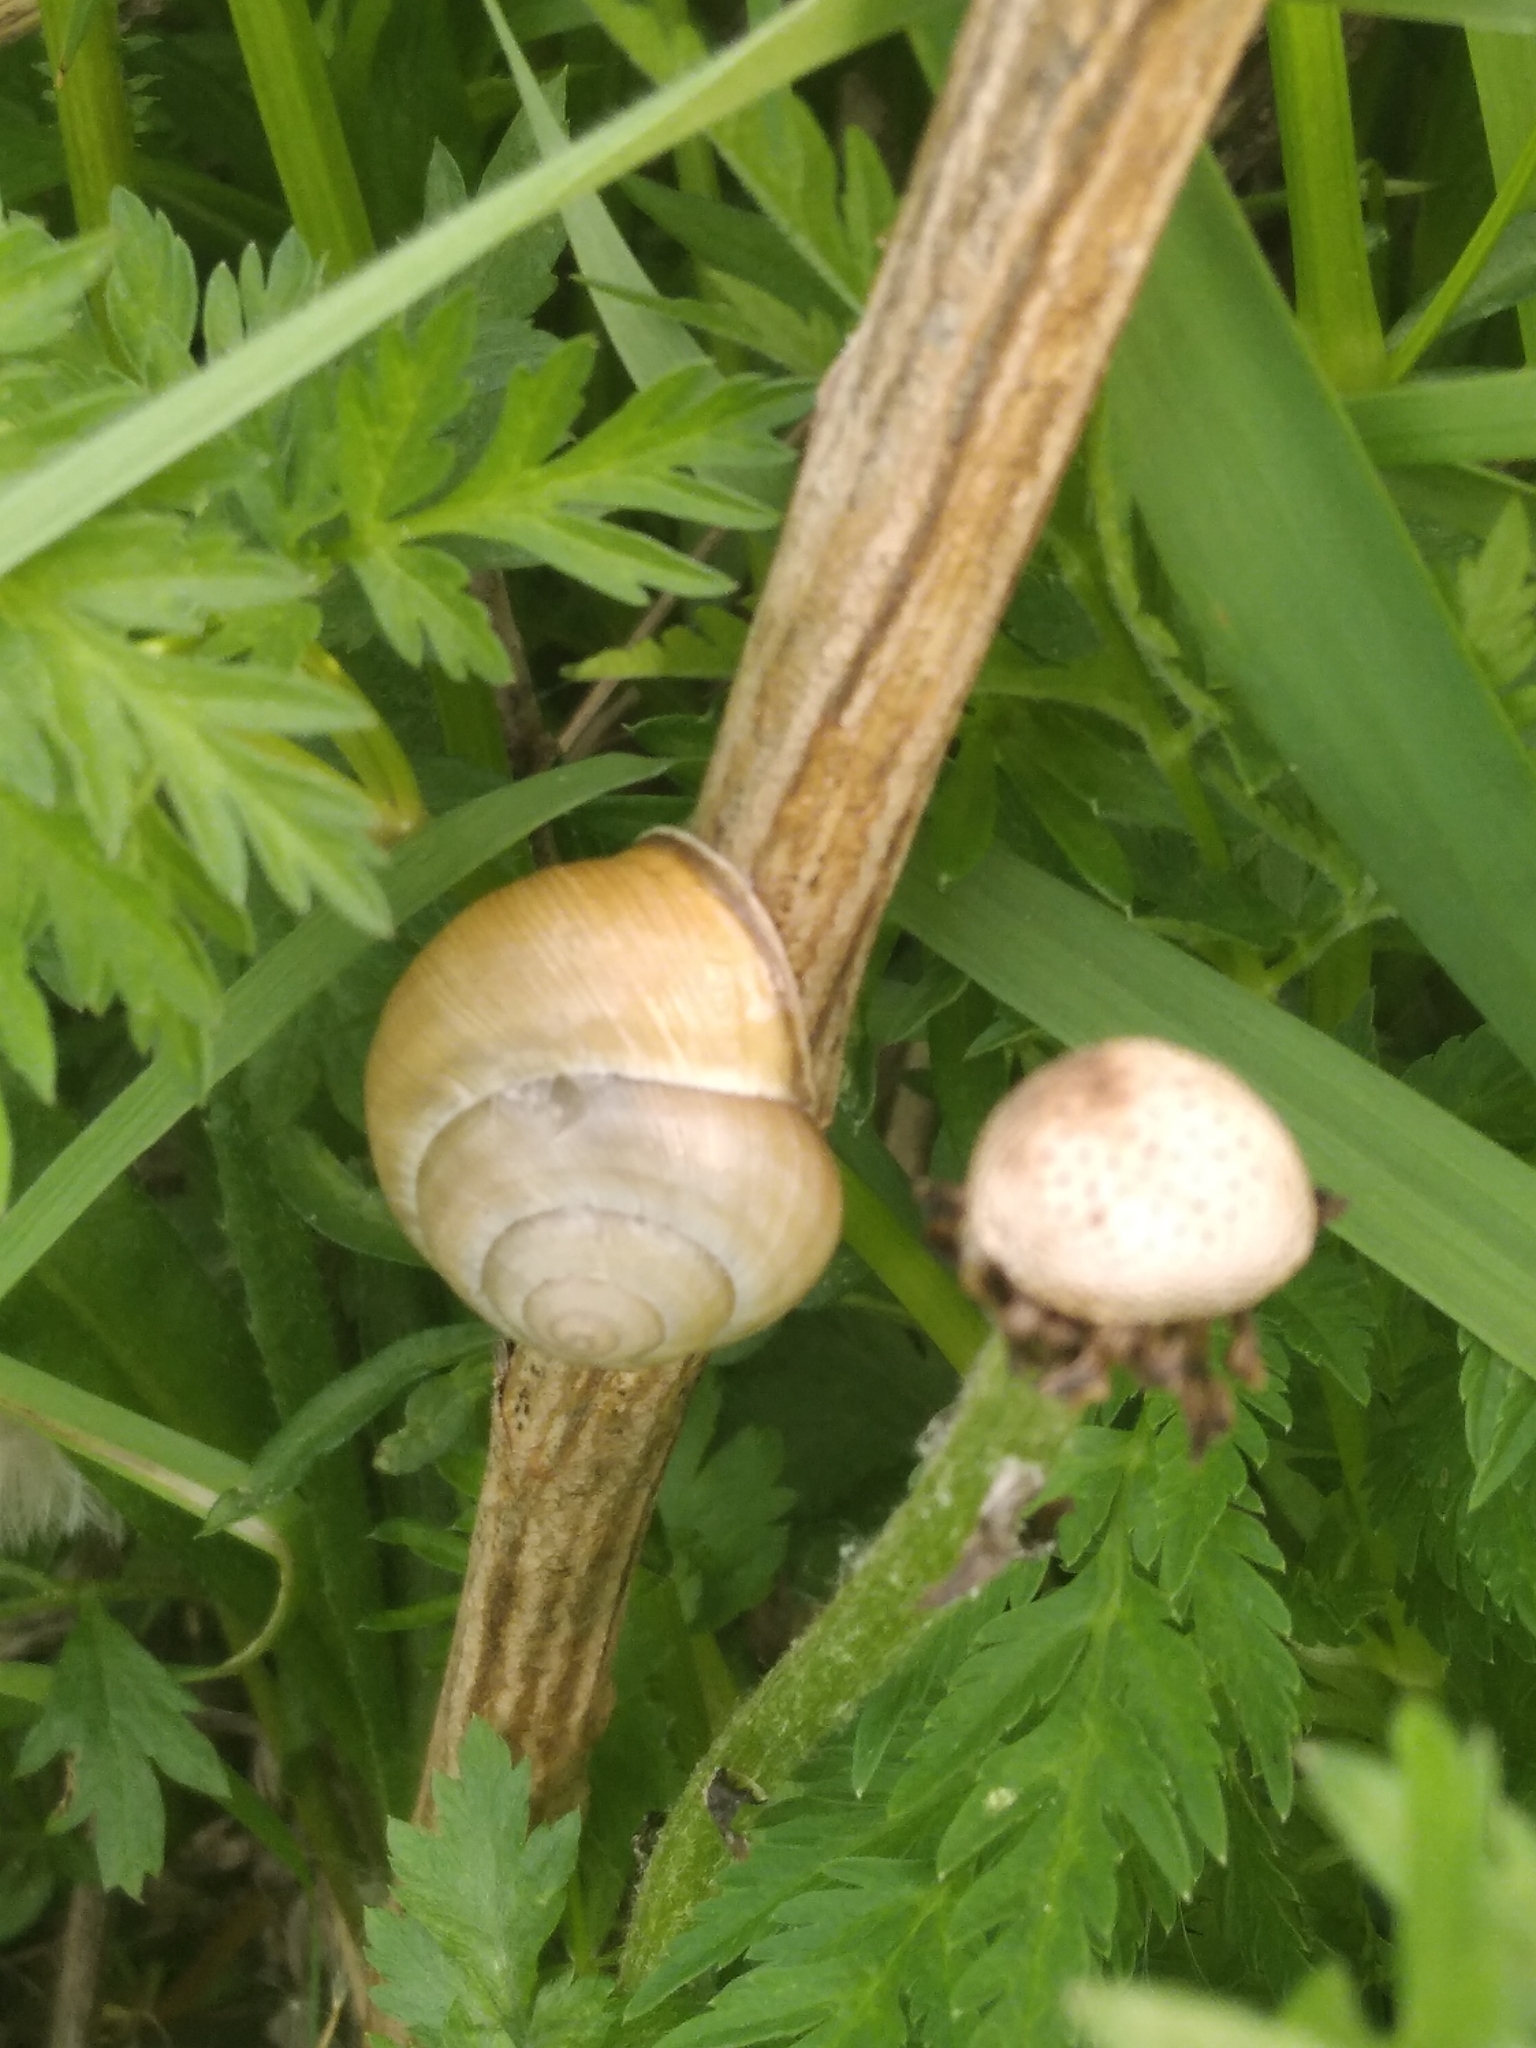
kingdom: Animalia
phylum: Mollusca
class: Gastropoda
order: Stylommatophora
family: Helicidae
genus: Caucasotachea
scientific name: Caucasotachea vindobonensis
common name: European helicid land snail
